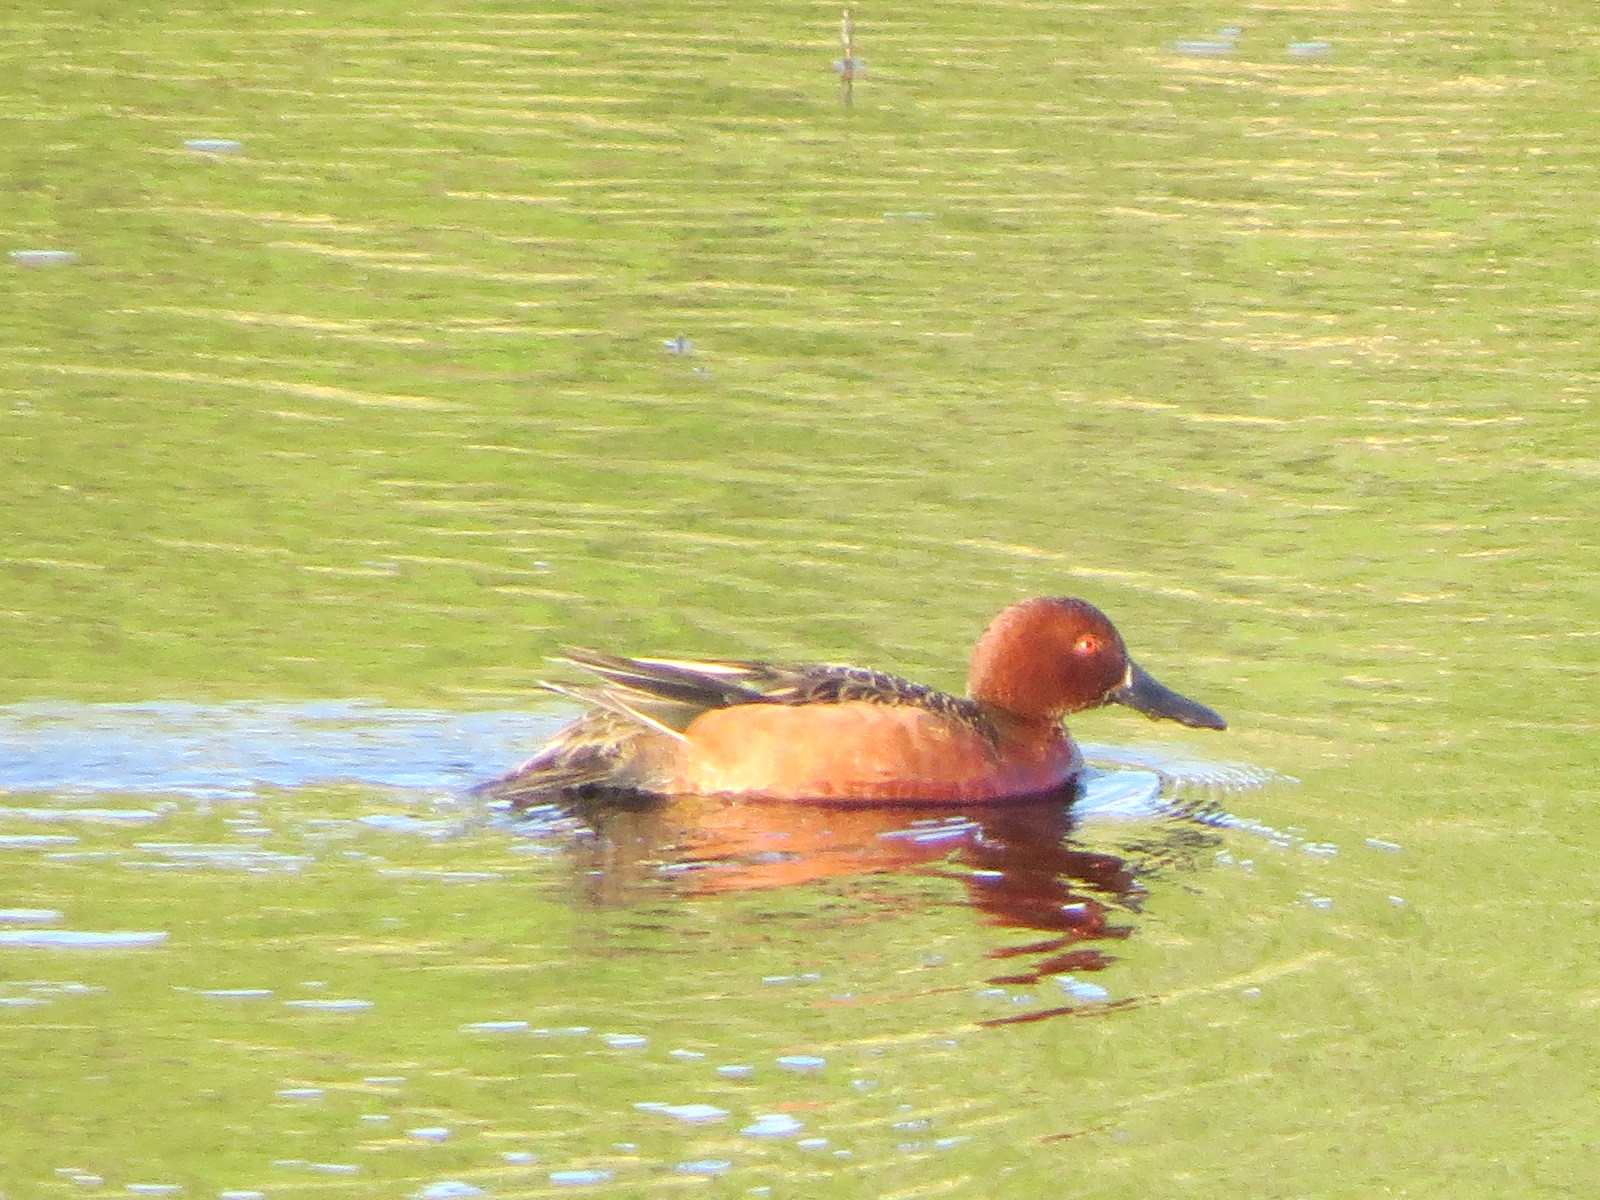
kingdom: Animalia
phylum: Chordata
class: Aves
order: Anseriformes
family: Anatidae
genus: Spatula
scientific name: Spatula cyanoptera
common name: Cinnamon teal
